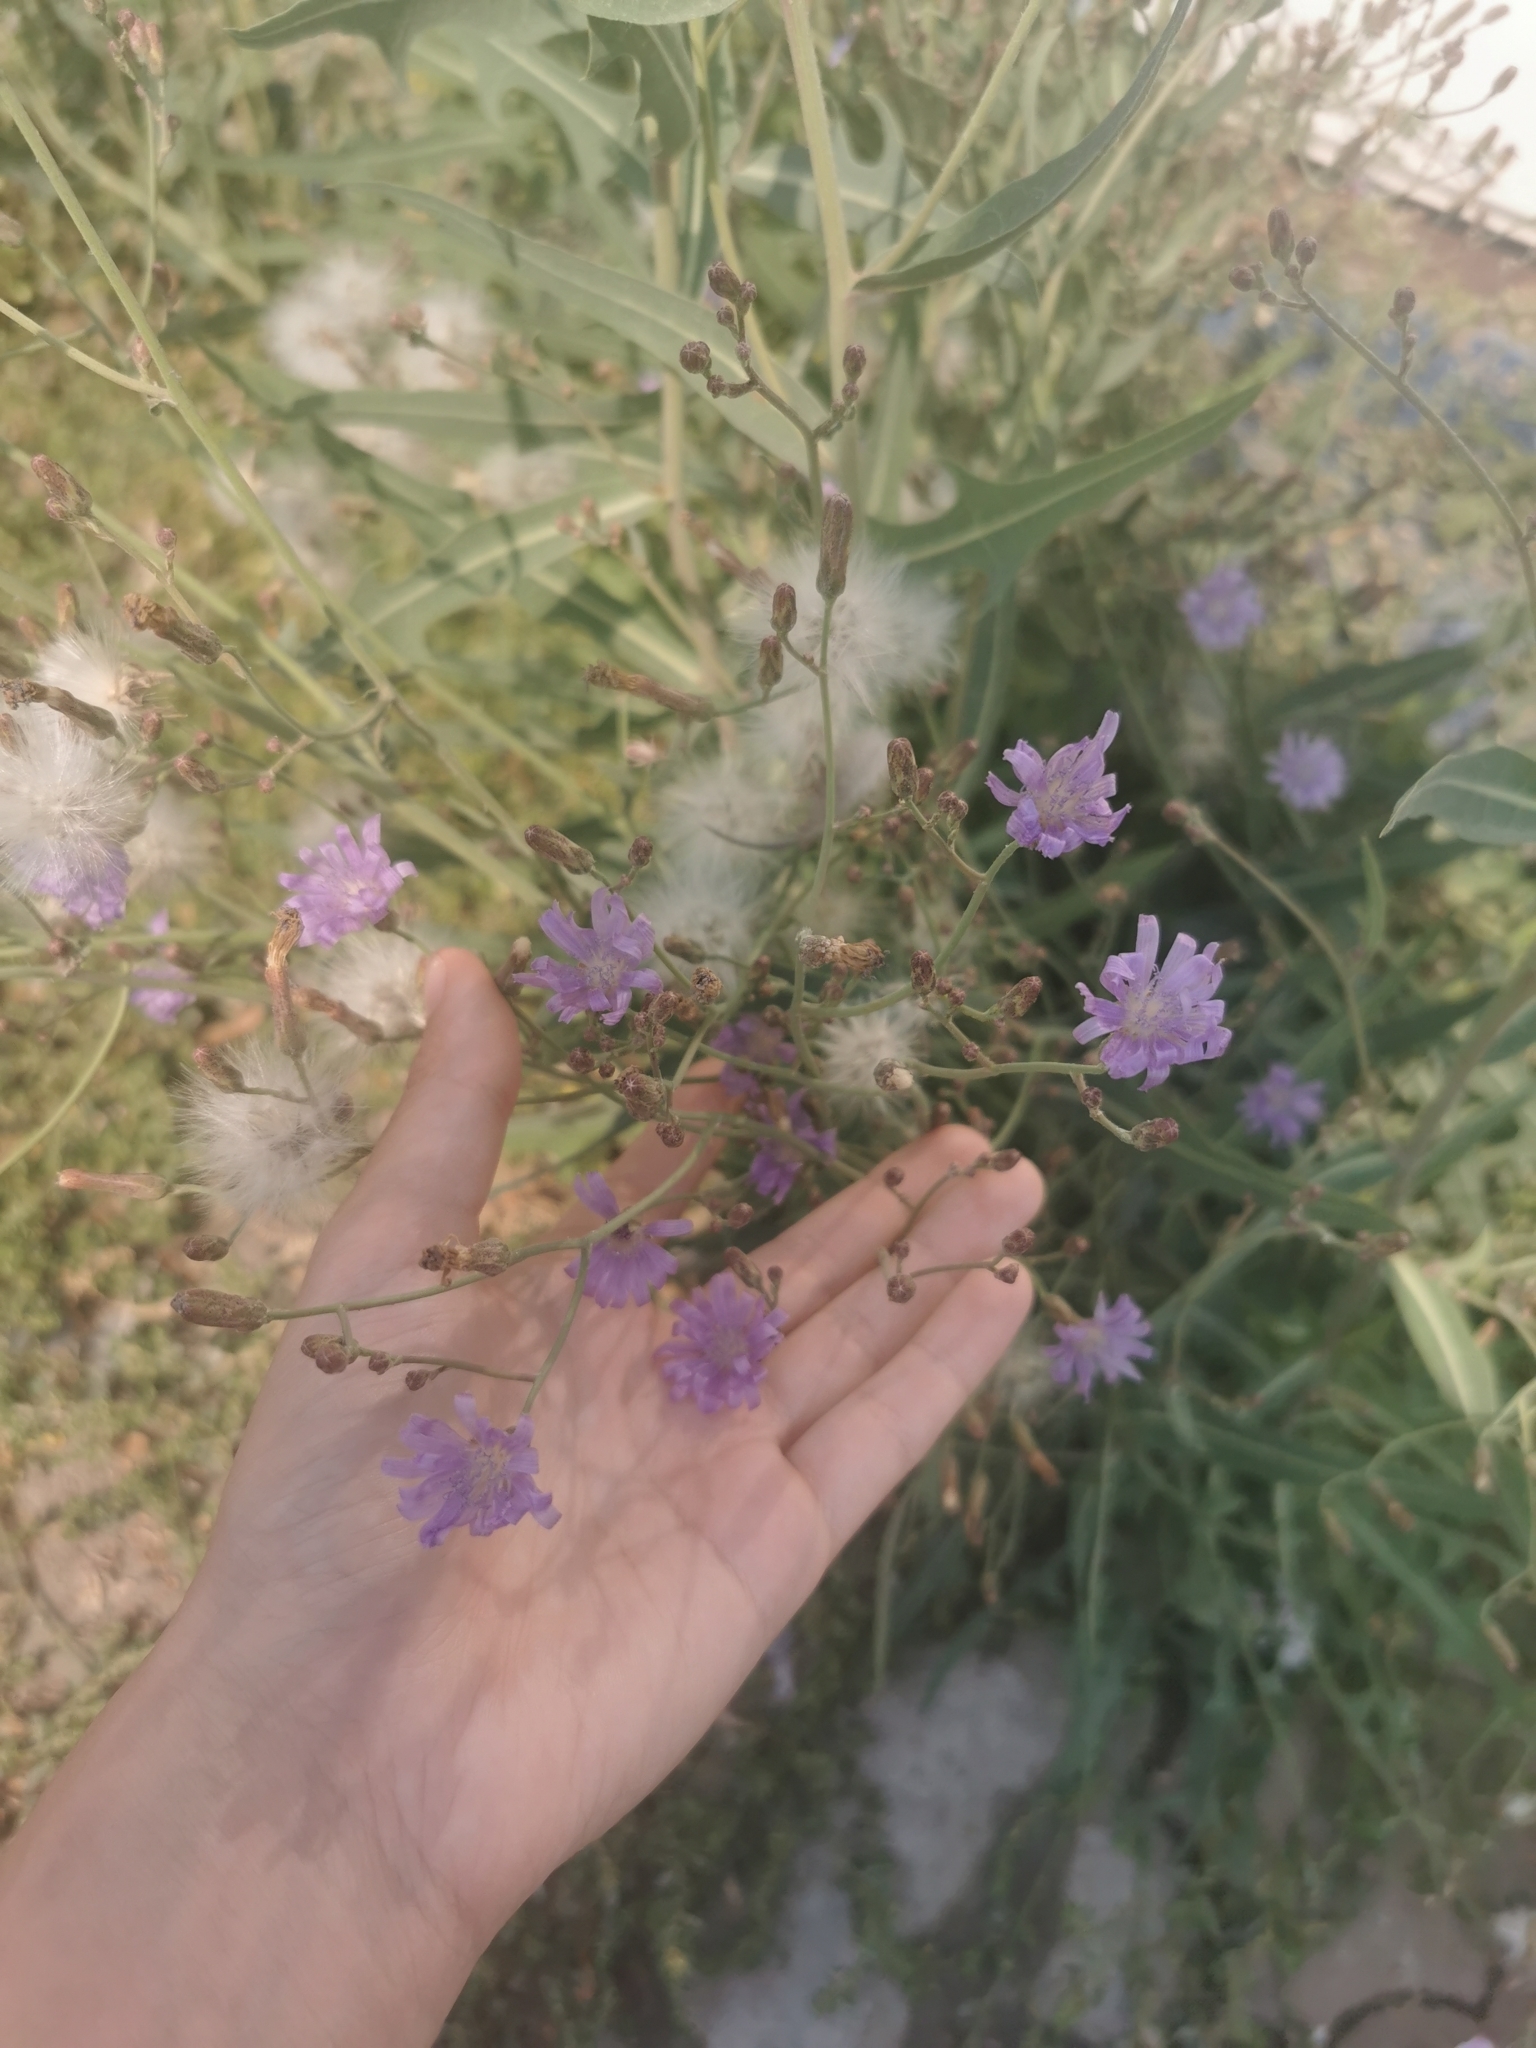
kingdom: Plantae
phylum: Tracheophyta
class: Magnoliopsida
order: Asterales
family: Asteraceae
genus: Lactuca
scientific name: Lactuca tatarica
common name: Blue lettuce
